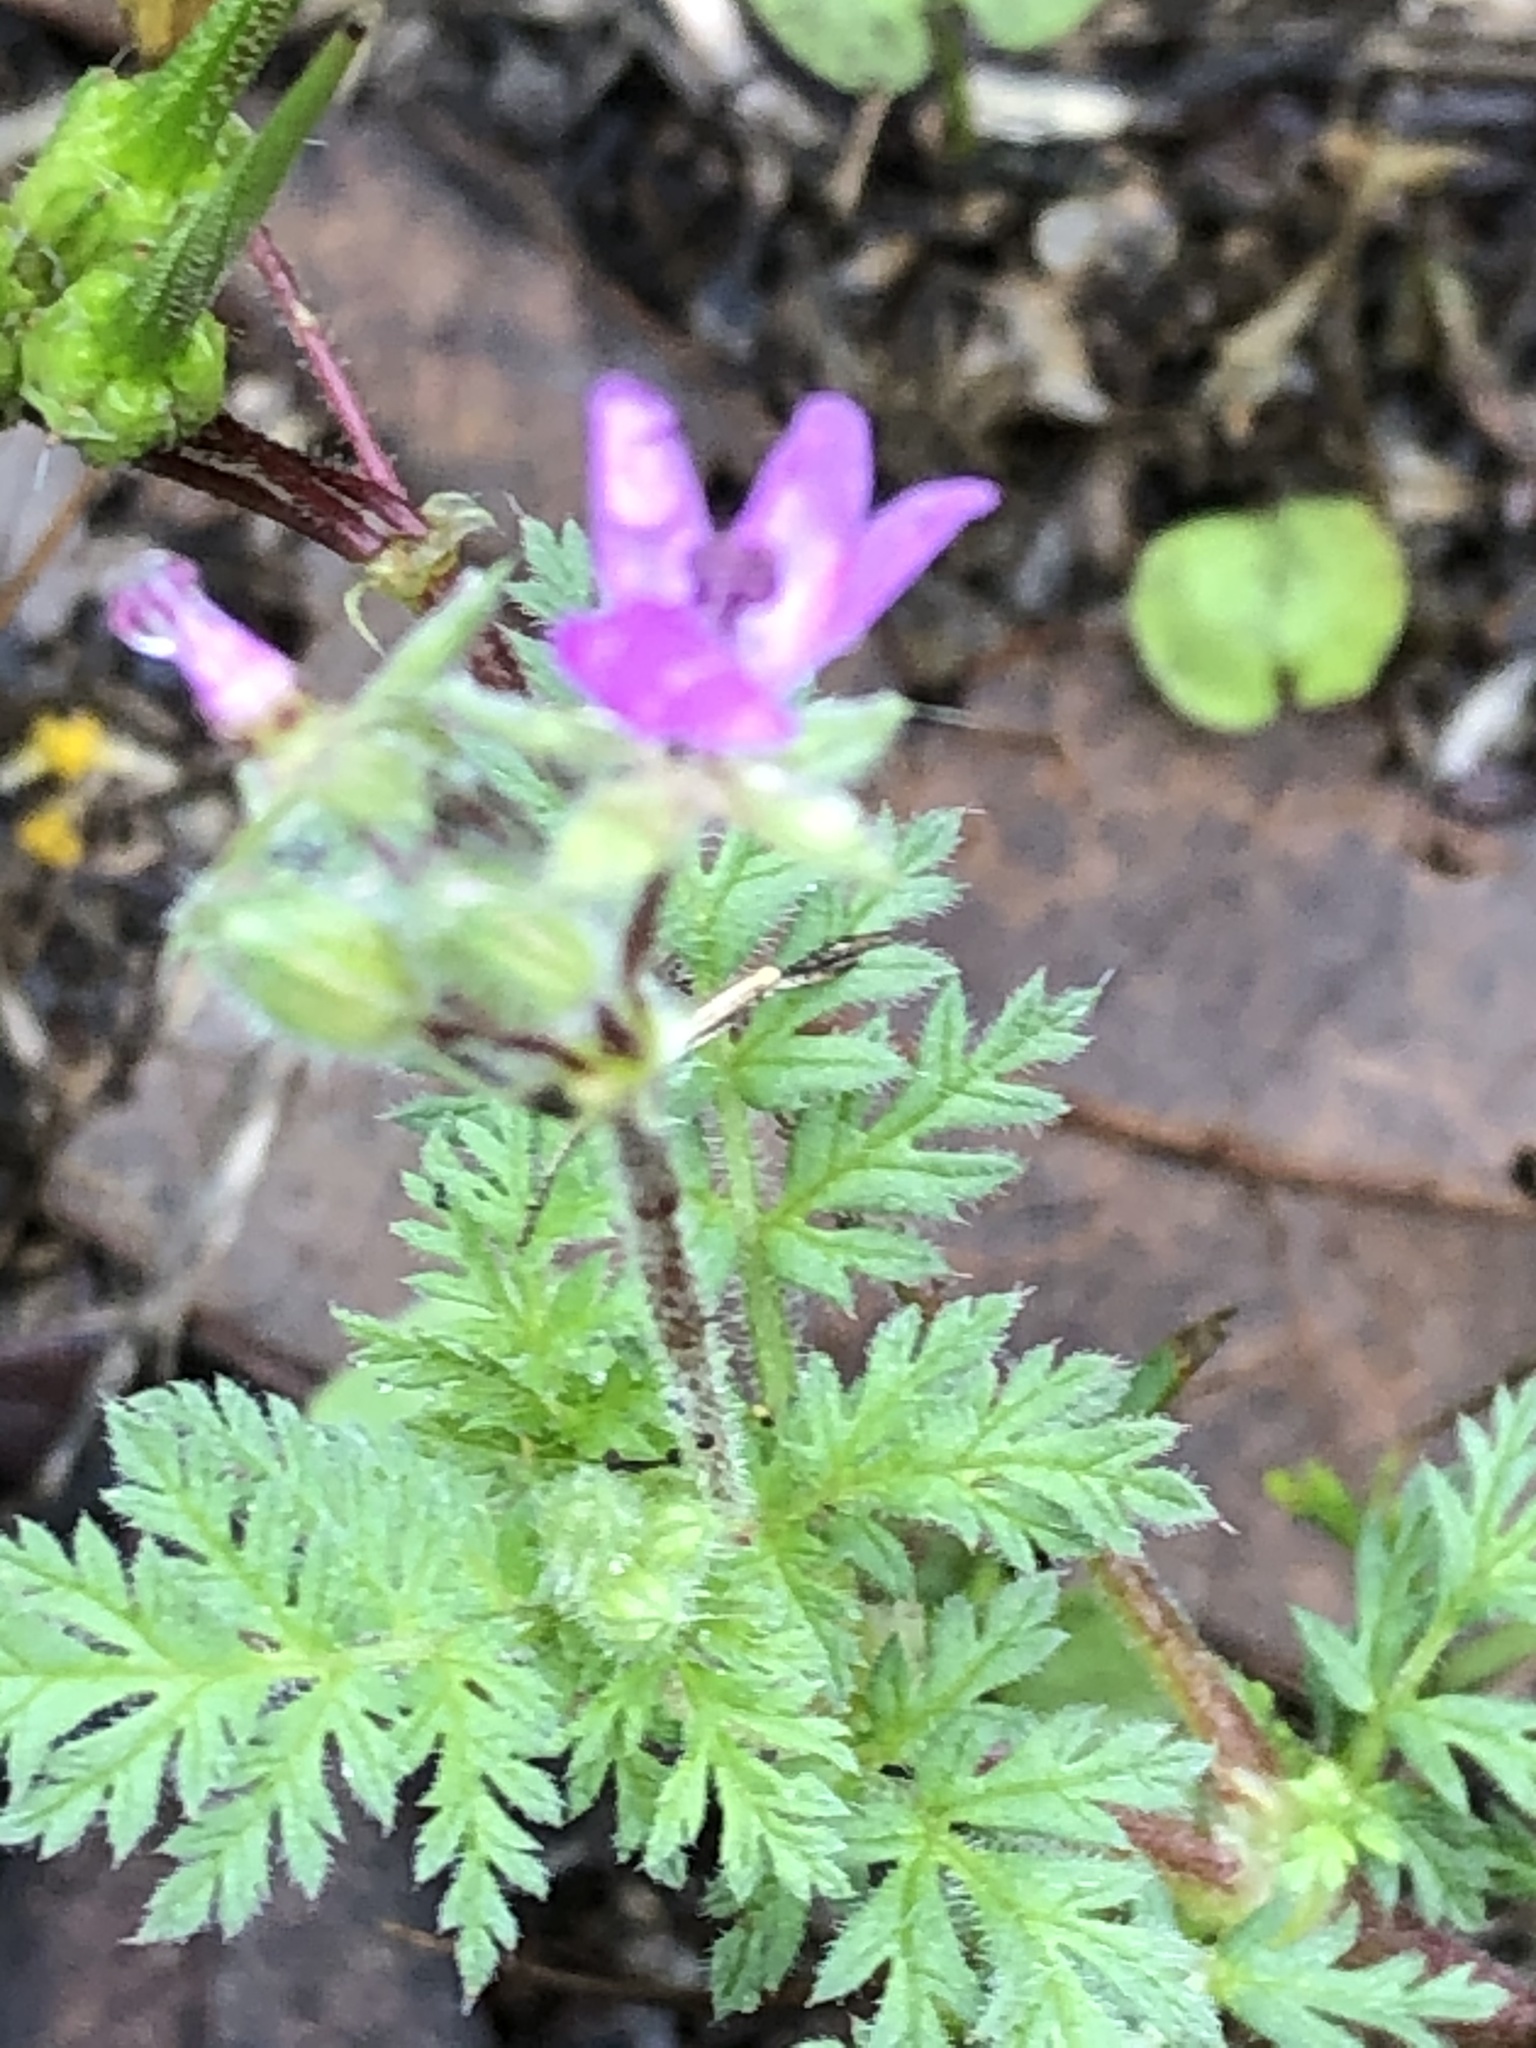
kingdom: Plantae
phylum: Tracheophyta
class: Magnoliopsida
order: Geraniales
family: Geraniaceae
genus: Erodium
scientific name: Erodium cicutarium
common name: Common stork's-bill
